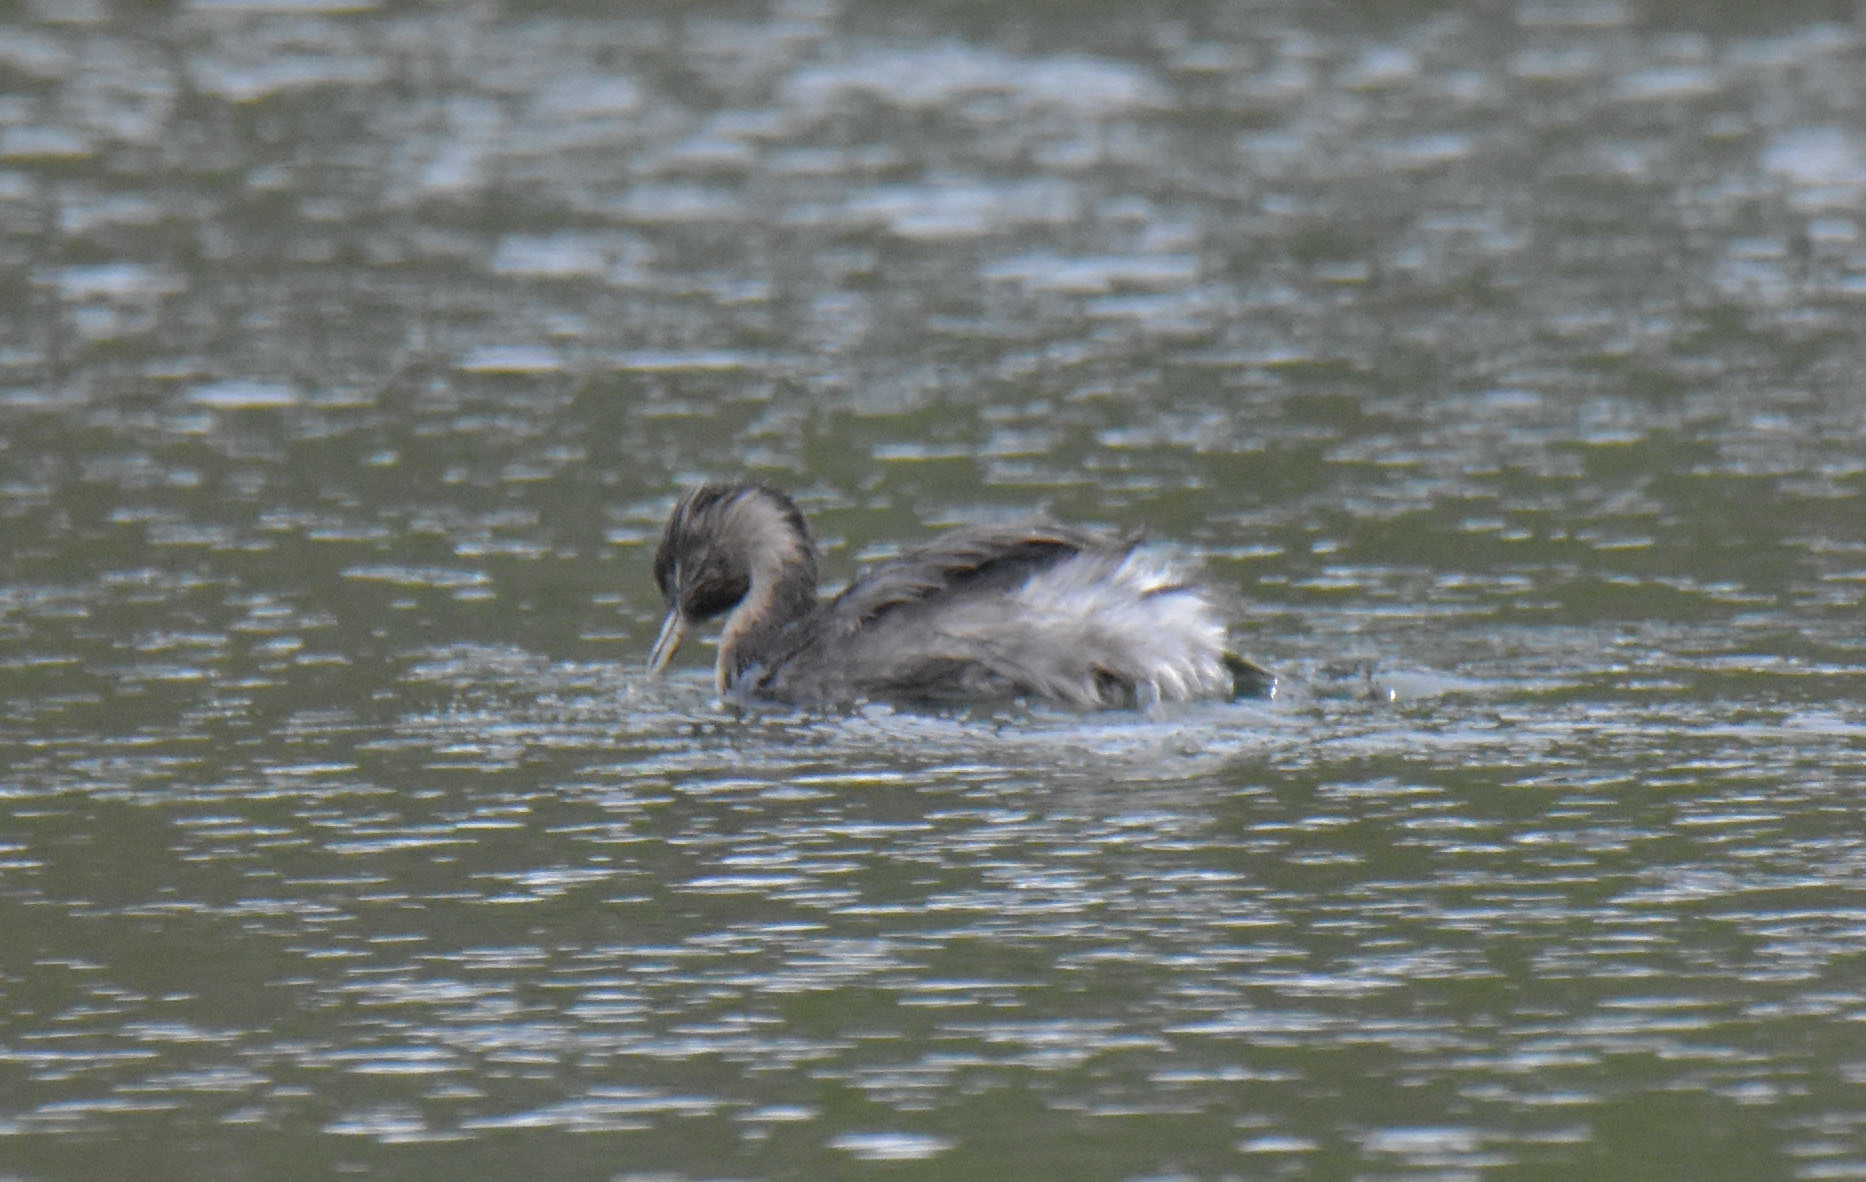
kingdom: Animalia
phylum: Chordata
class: Aves
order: Podicipediformes
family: Podicipedidae
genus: Poliocephalus
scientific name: Poliocephalus poliocephalus
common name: Hoary-headed grebe
